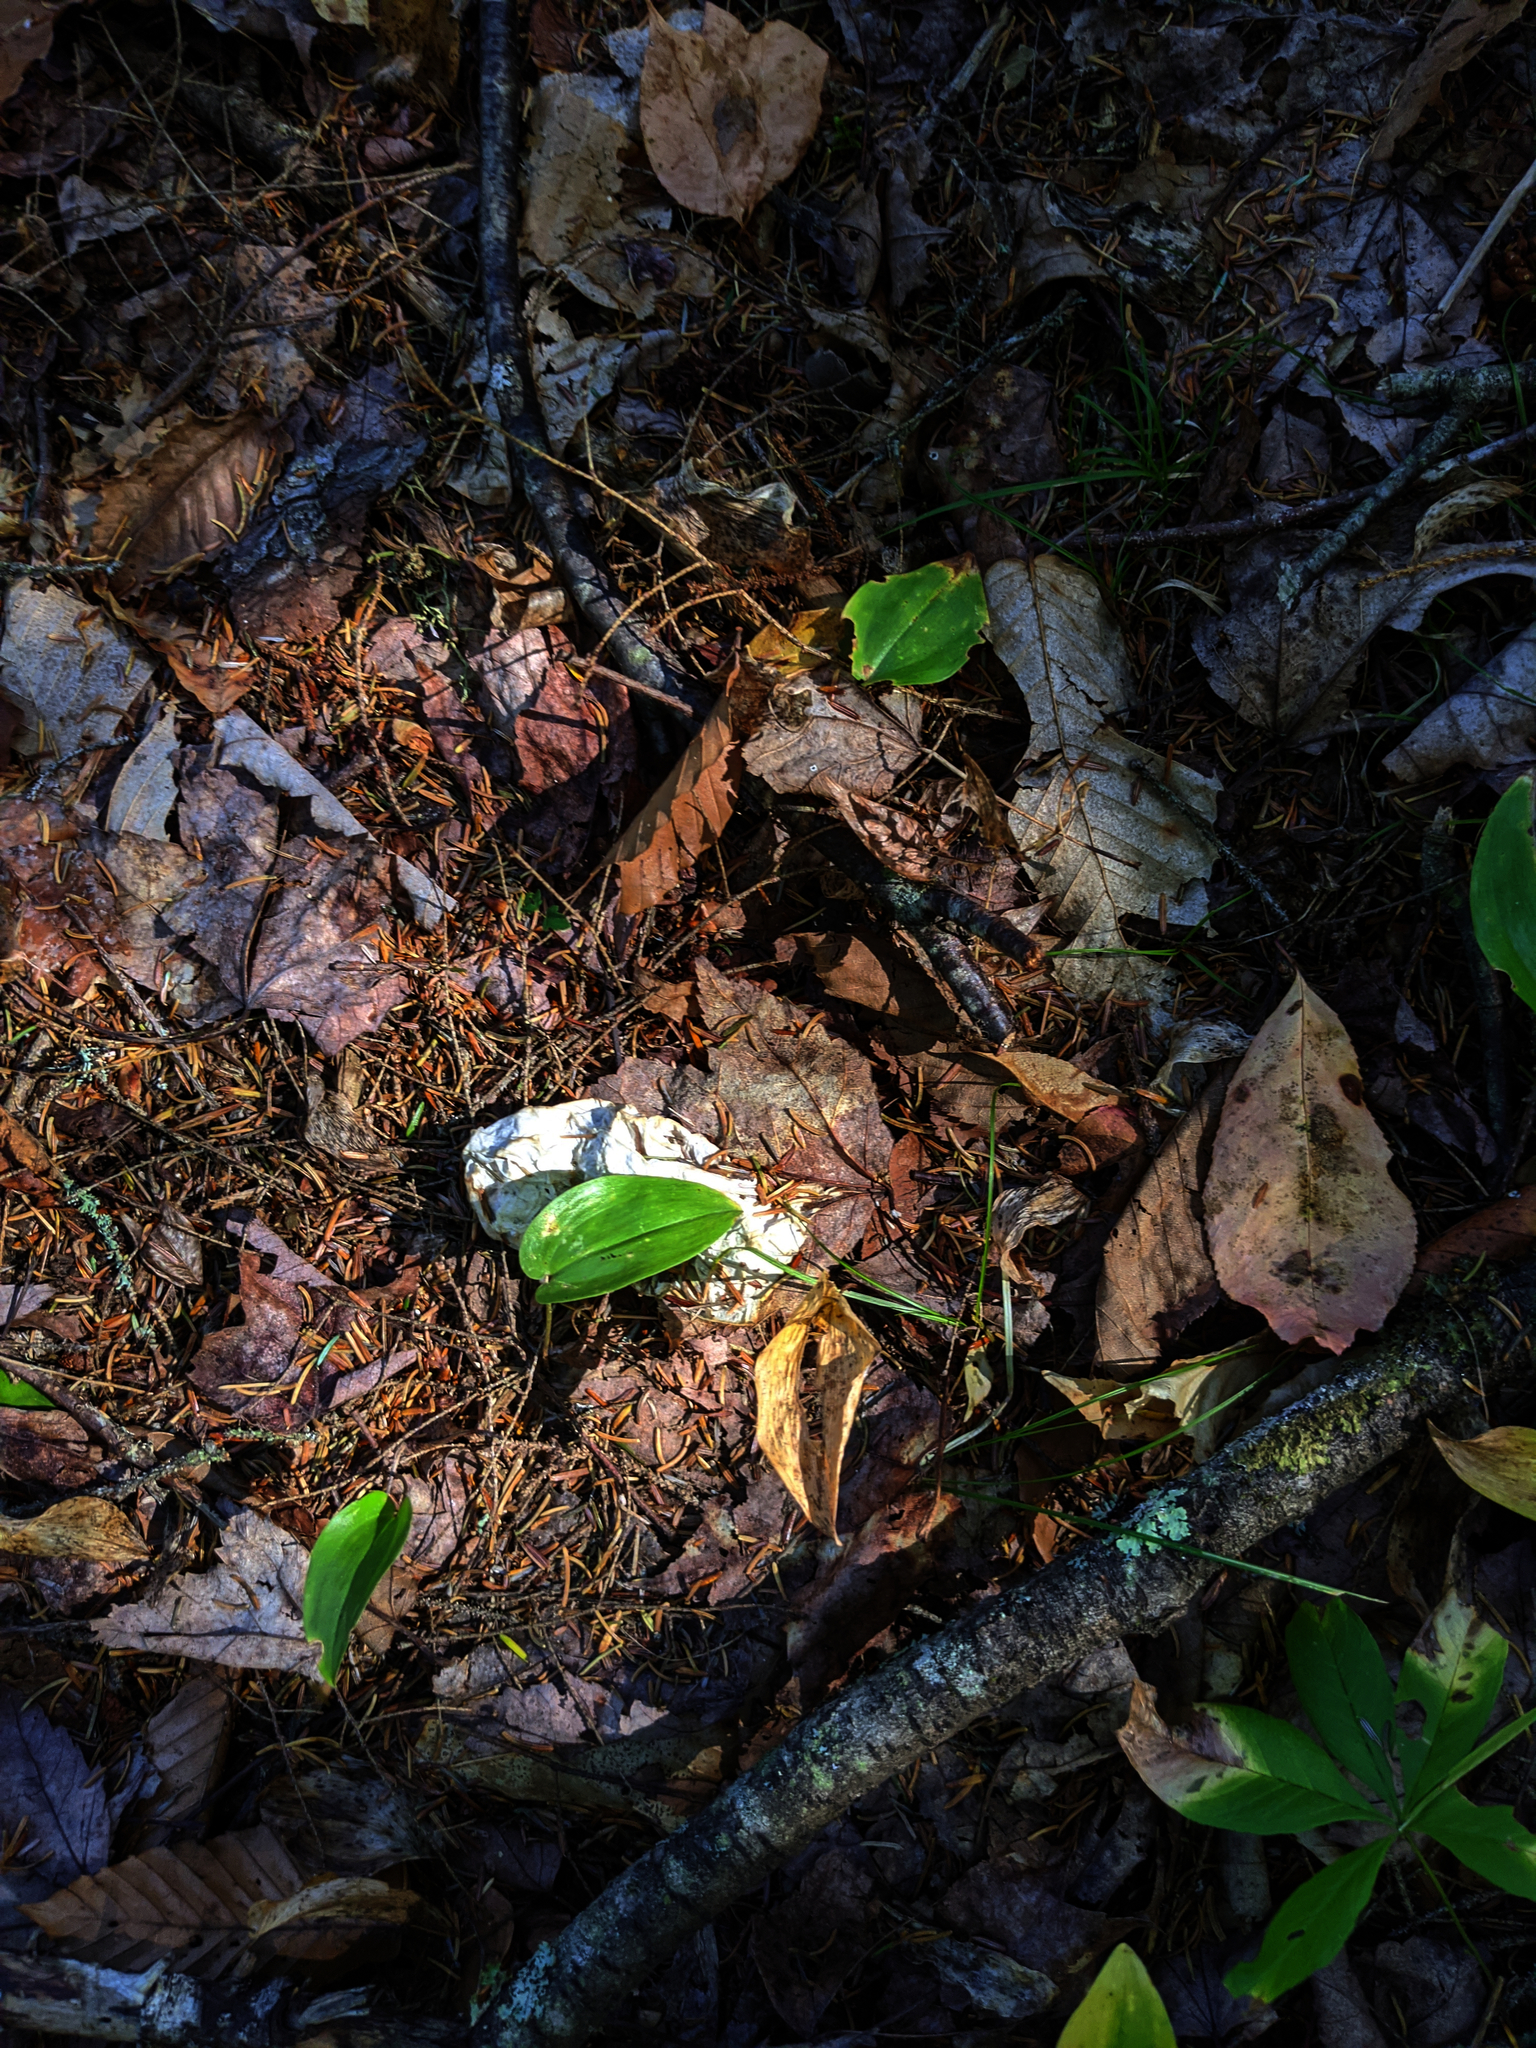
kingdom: Plantae
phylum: Tracheophyta
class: Liliopsida
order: Asparagales
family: Asparagaceae
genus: Maianthemum
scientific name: Maianthemum canadense
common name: False lily-of-the-valley
